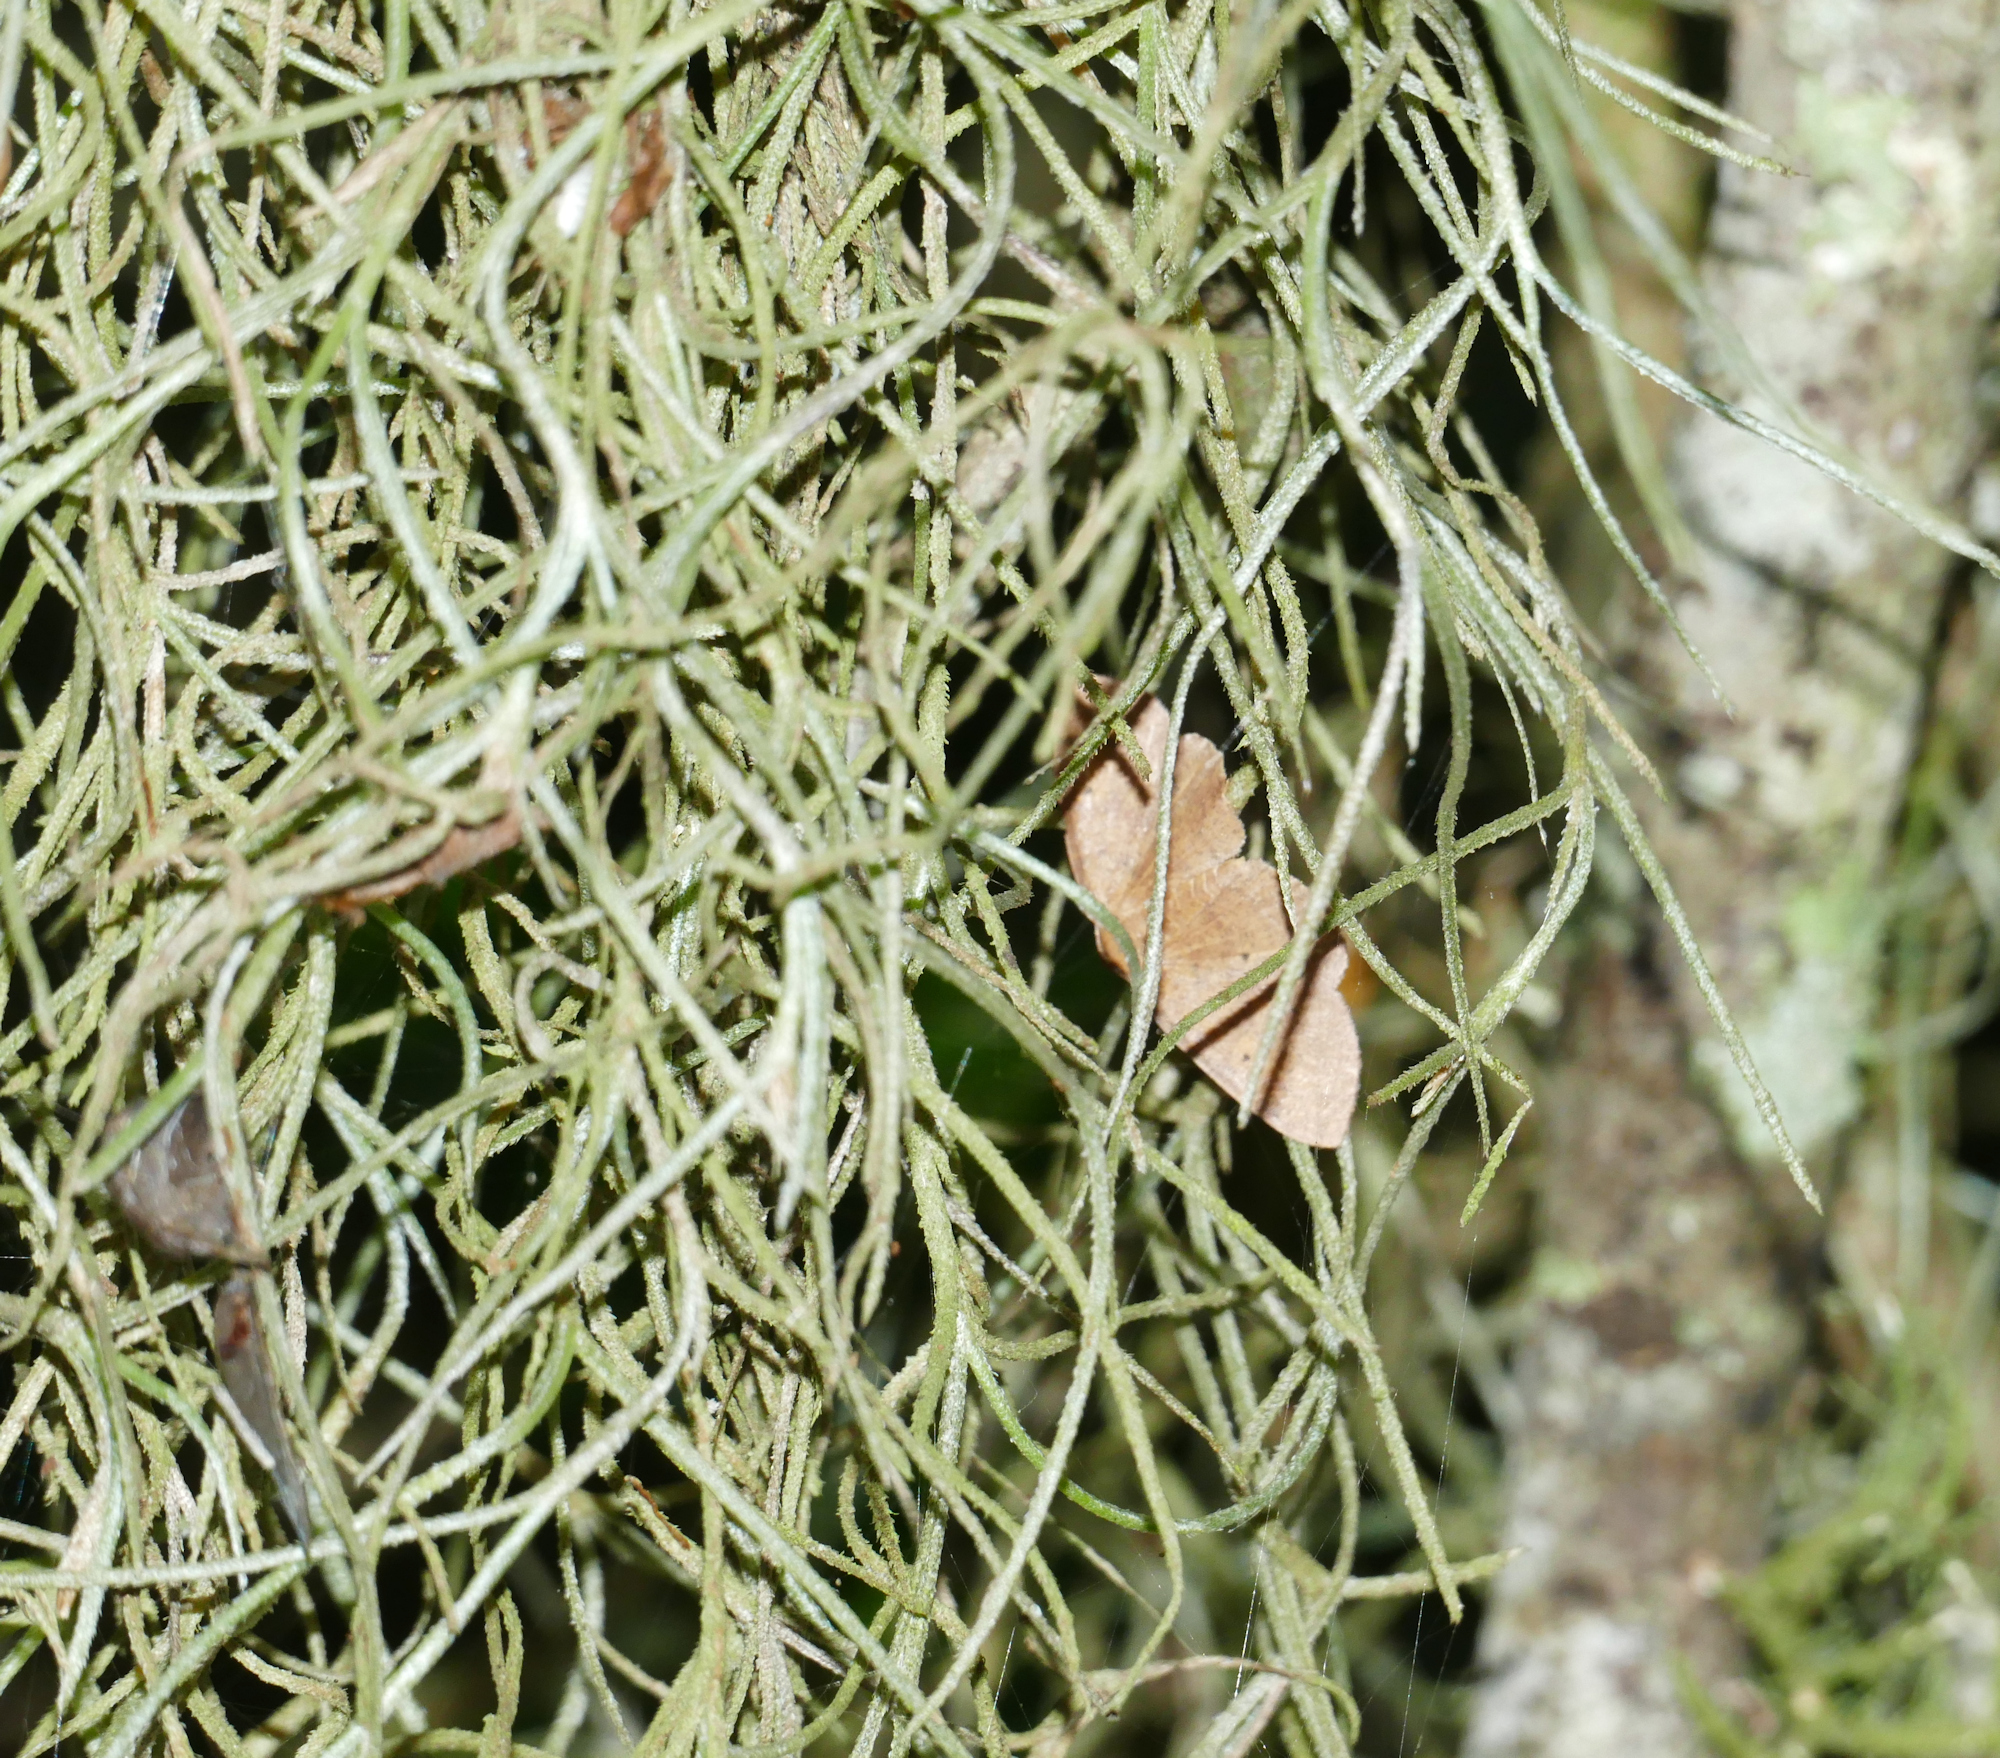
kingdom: Plantae
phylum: Tracheophyta
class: Liliopsida
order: Poales
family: Bromeliaceae
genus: Tillandsia
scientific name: Tillandsia usneoides
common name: Spanish moss
